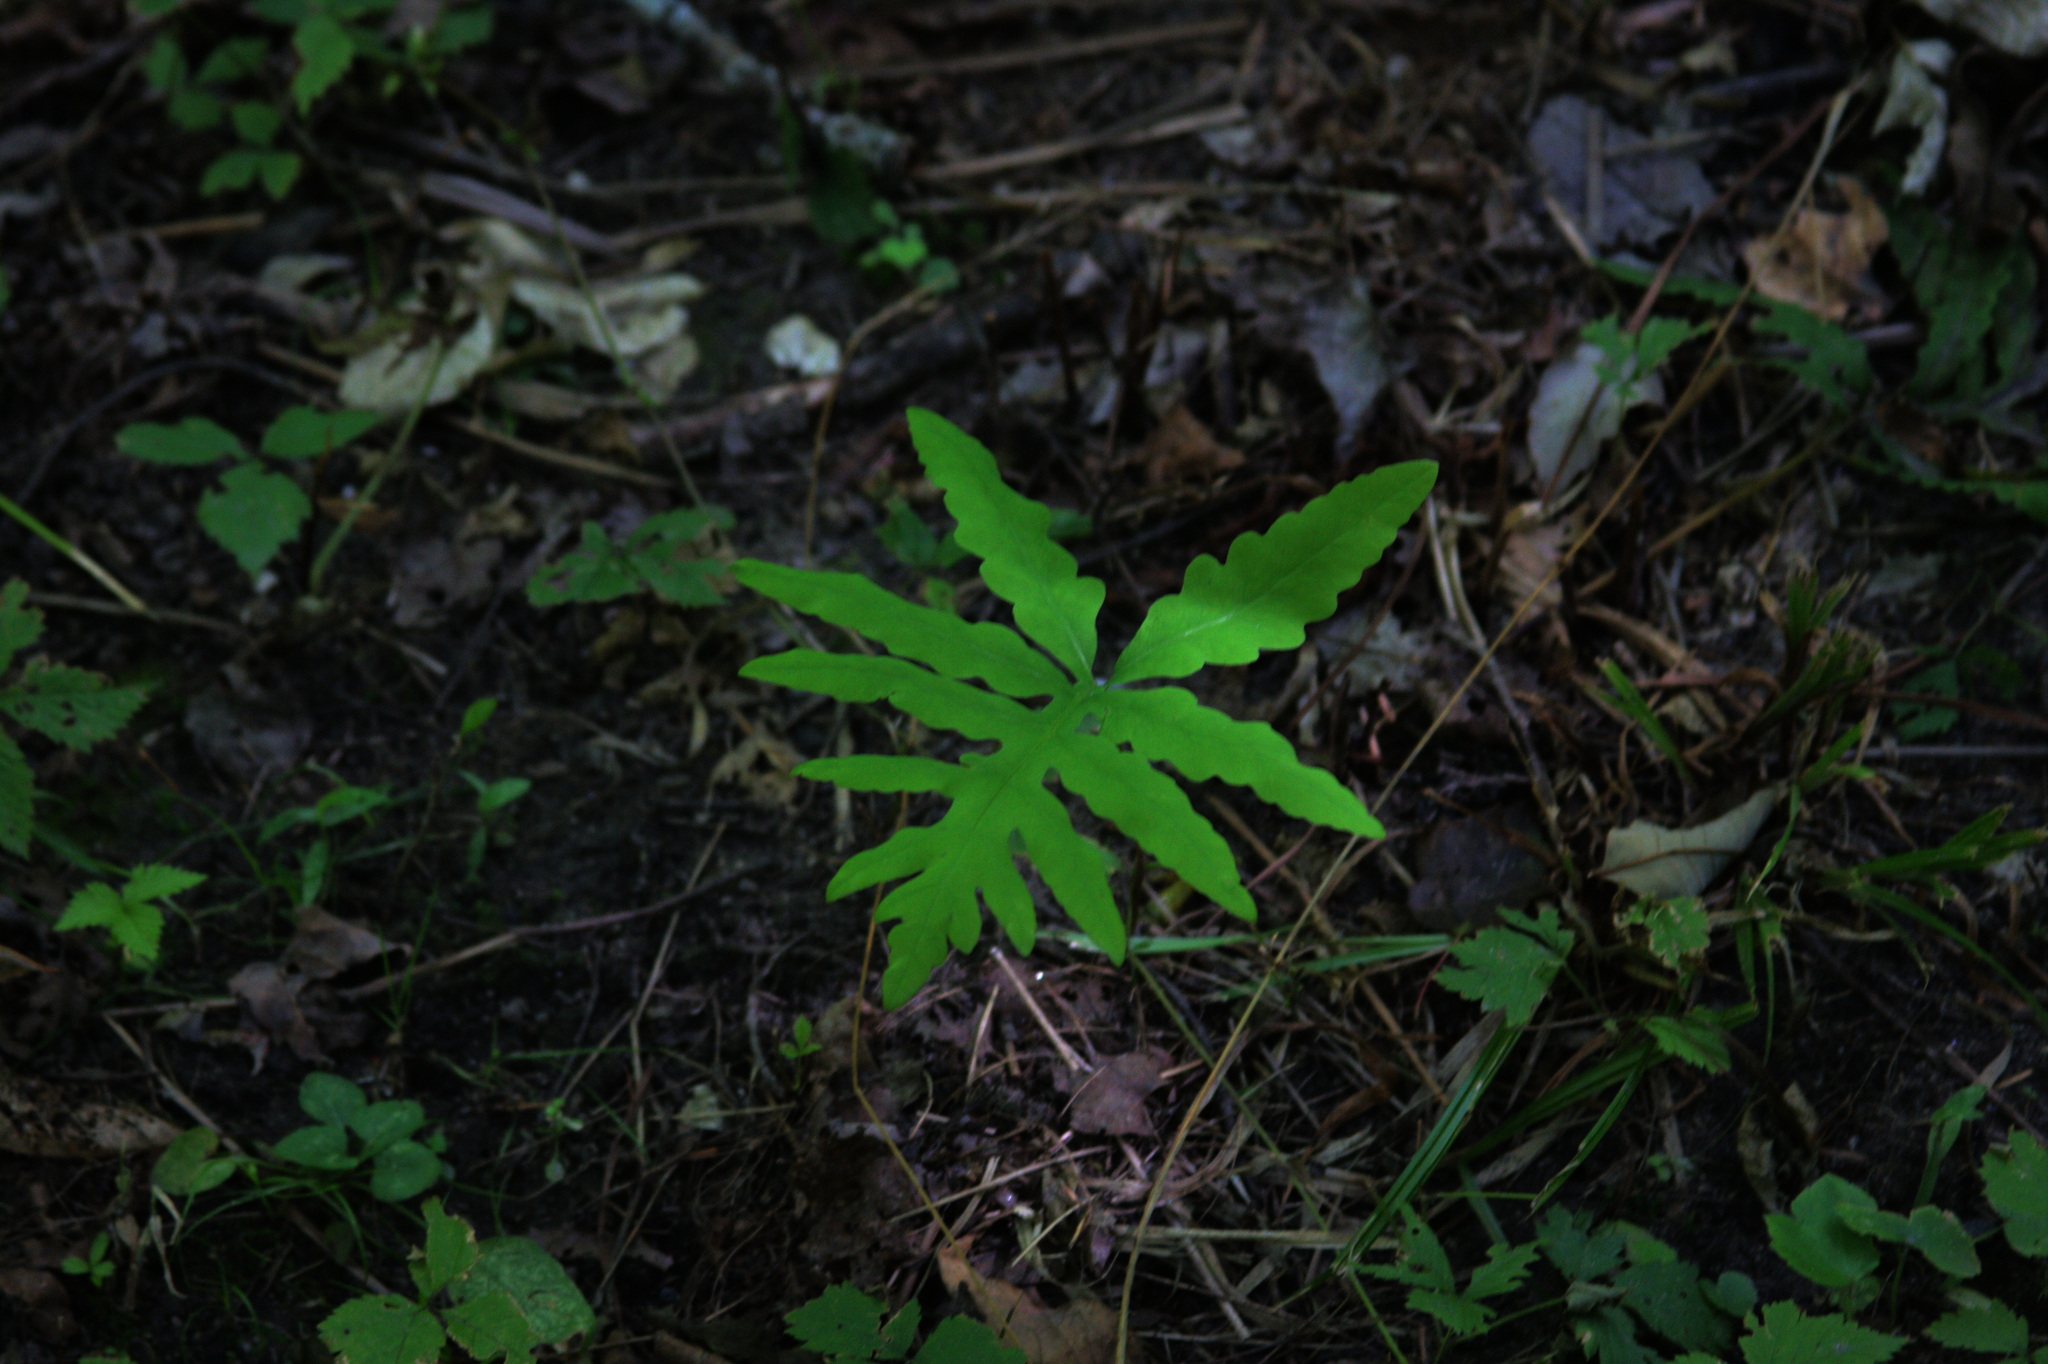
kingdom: Plantae
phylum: Tracheophyta
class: Polypodiopsida
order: Polypodiales
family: Onocleaceae
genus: Onoclea
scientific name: Onoclea sensibilis
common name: Sensitive fern
